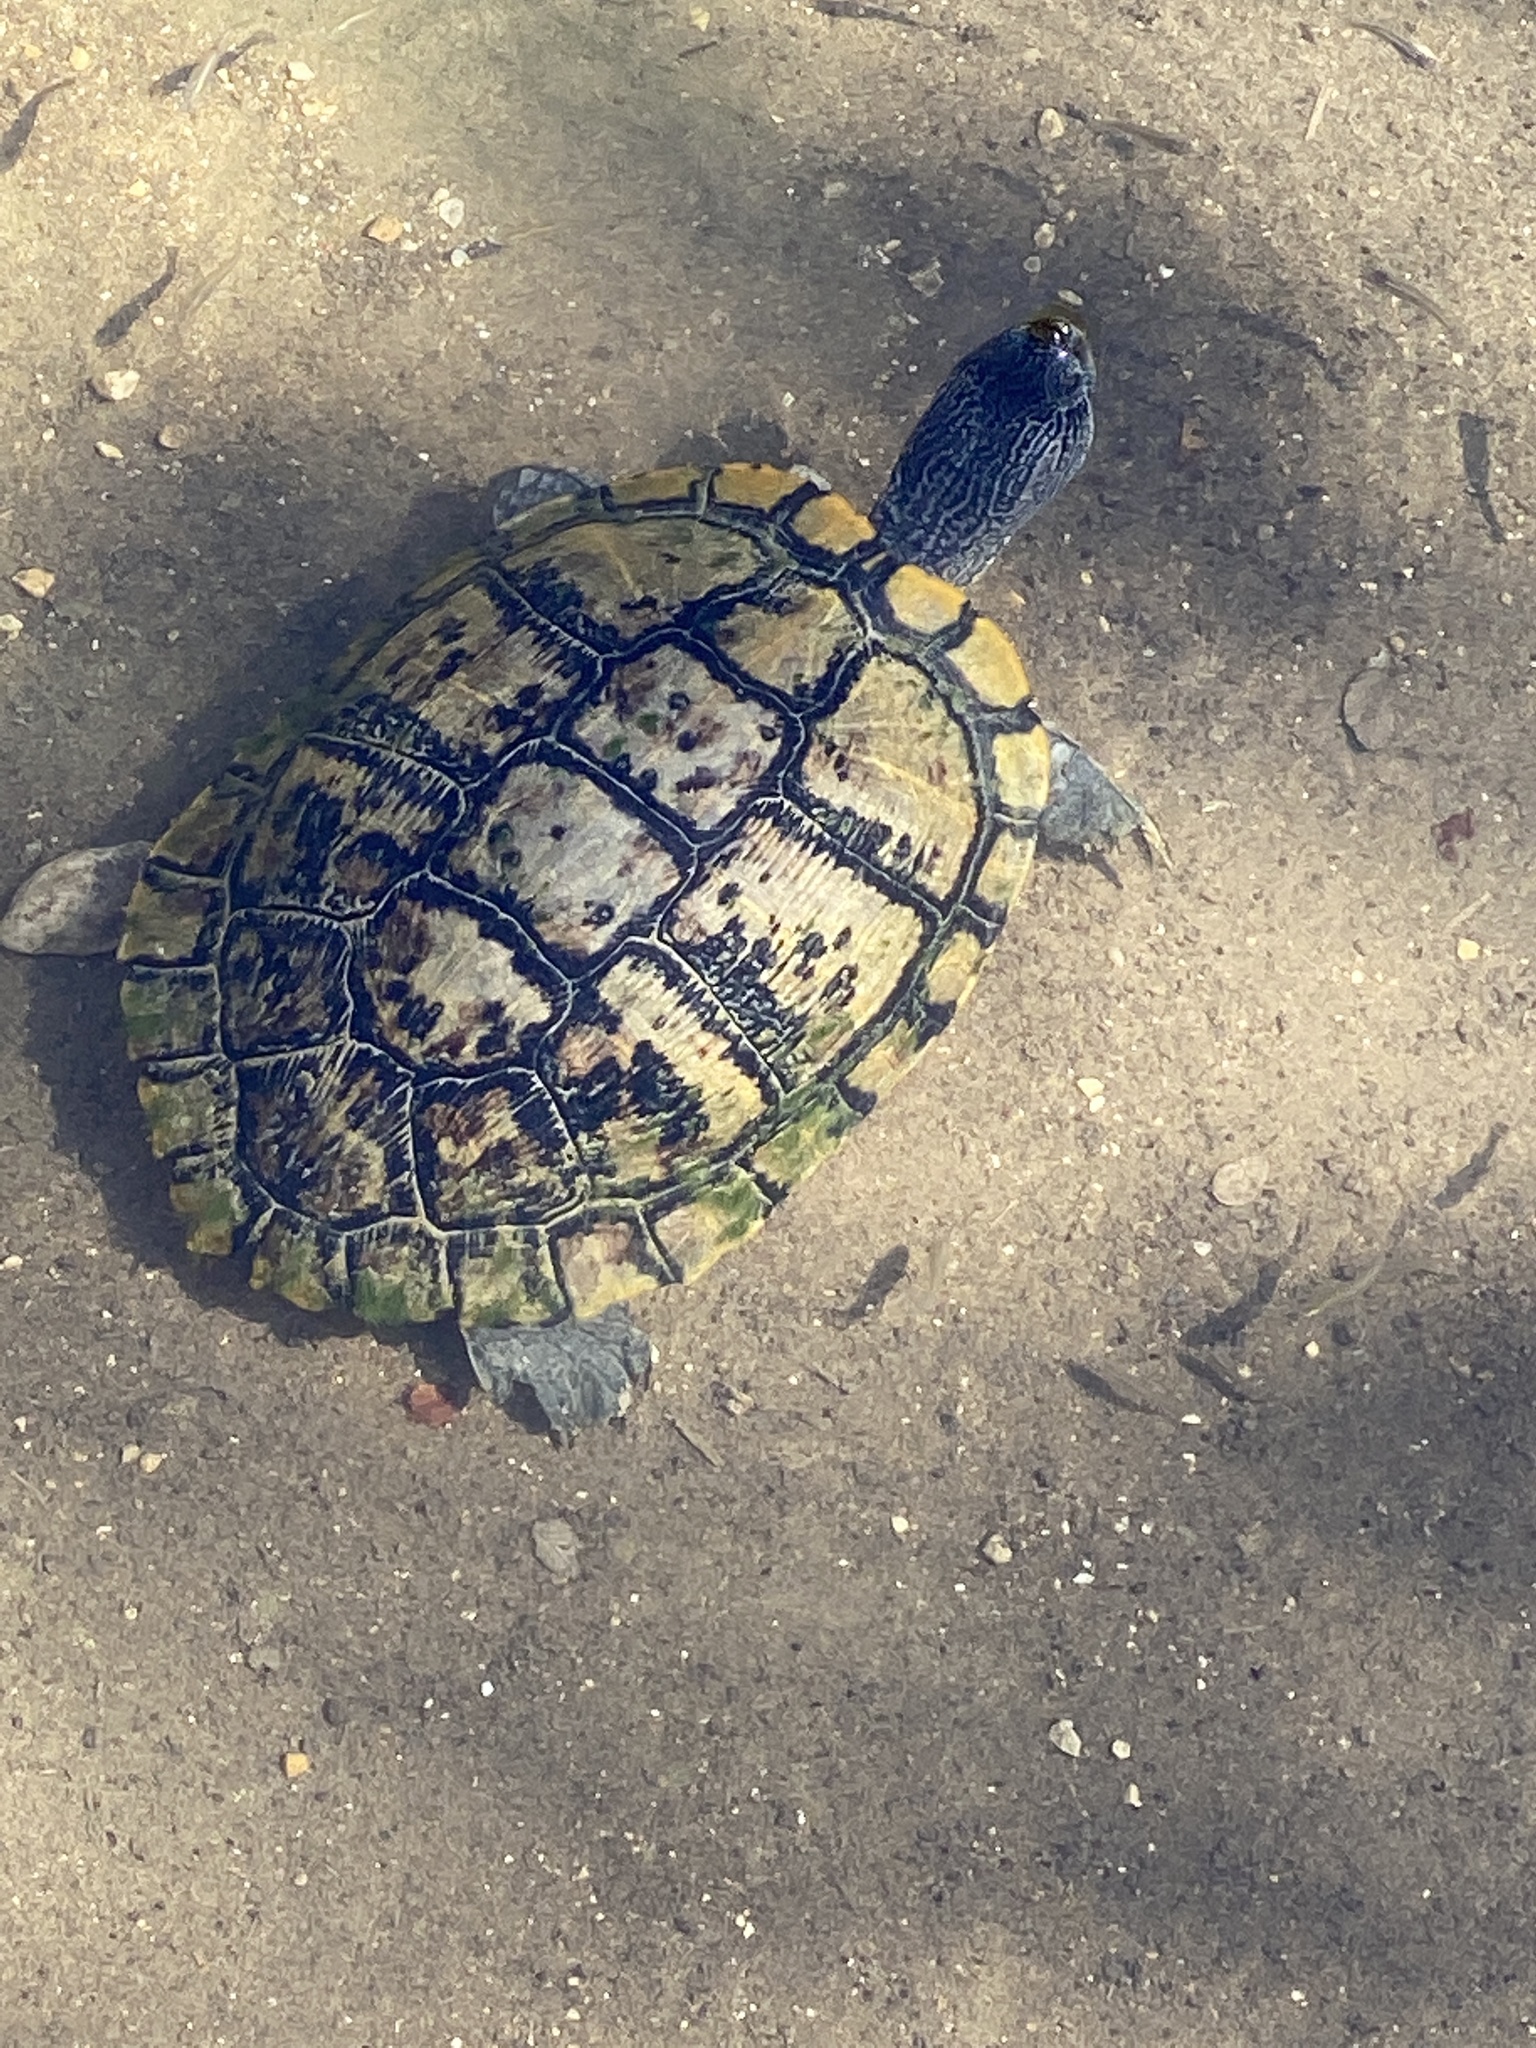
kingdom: Animalia
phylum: Chordata
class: Testudines
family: Emydidae
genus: Trachemys
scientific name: Trachemys scripta
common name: Slider
